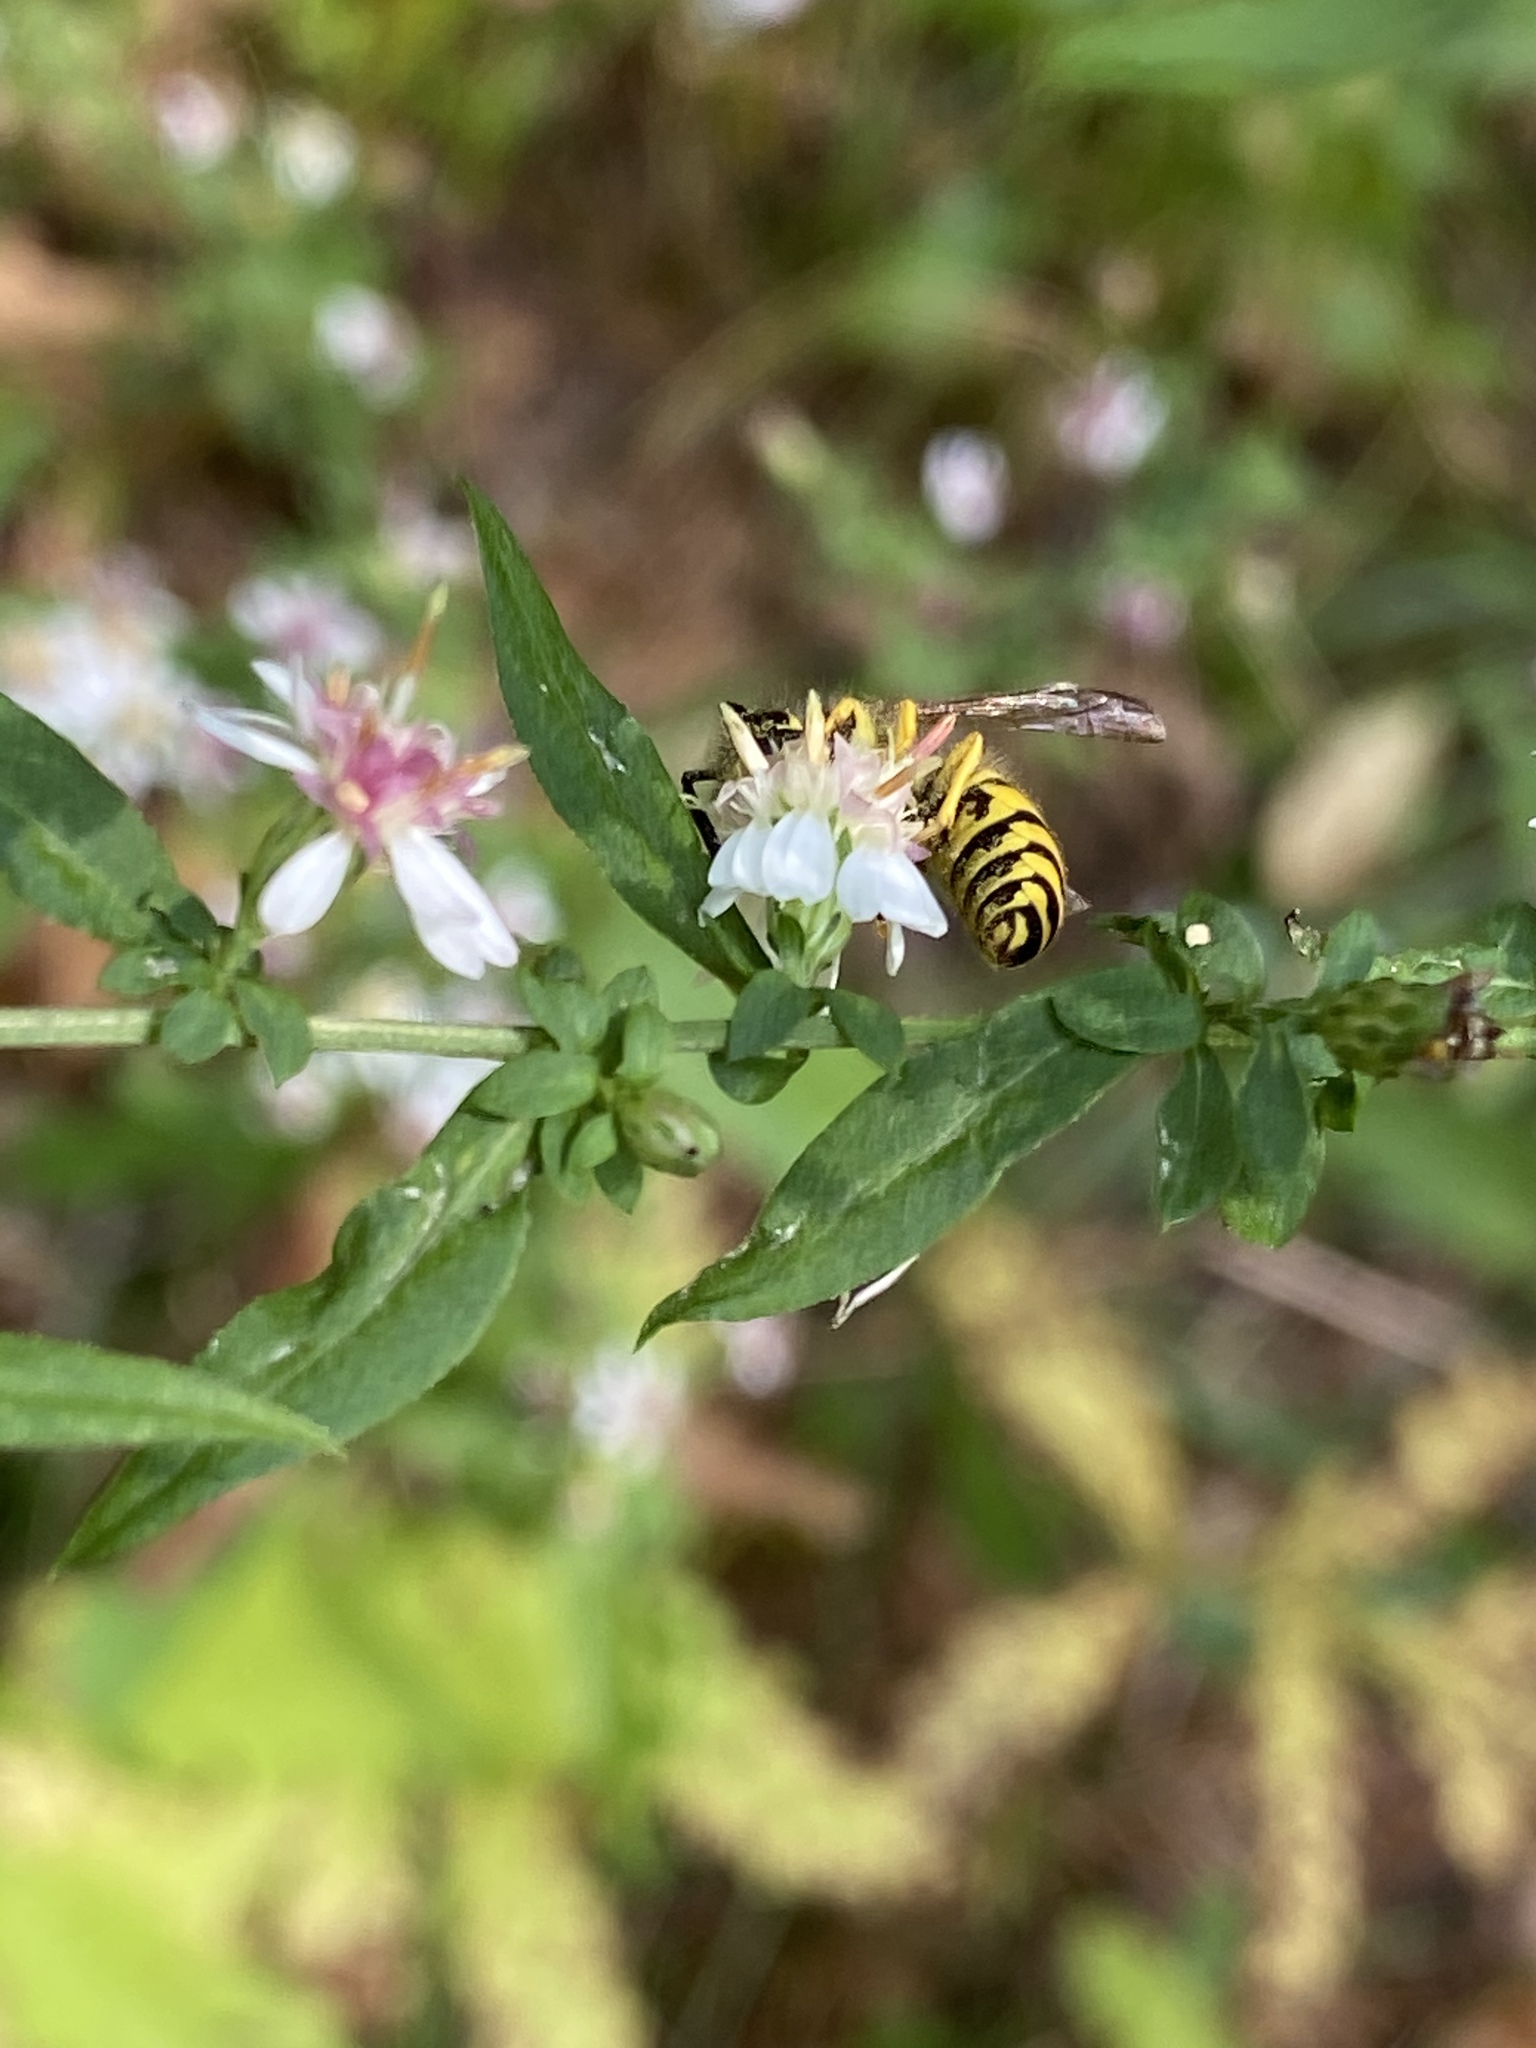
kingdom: Animalia
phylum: Arthropoda
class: Insecta
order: Hymenoptera
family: Vespidae
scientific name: Vespidae
